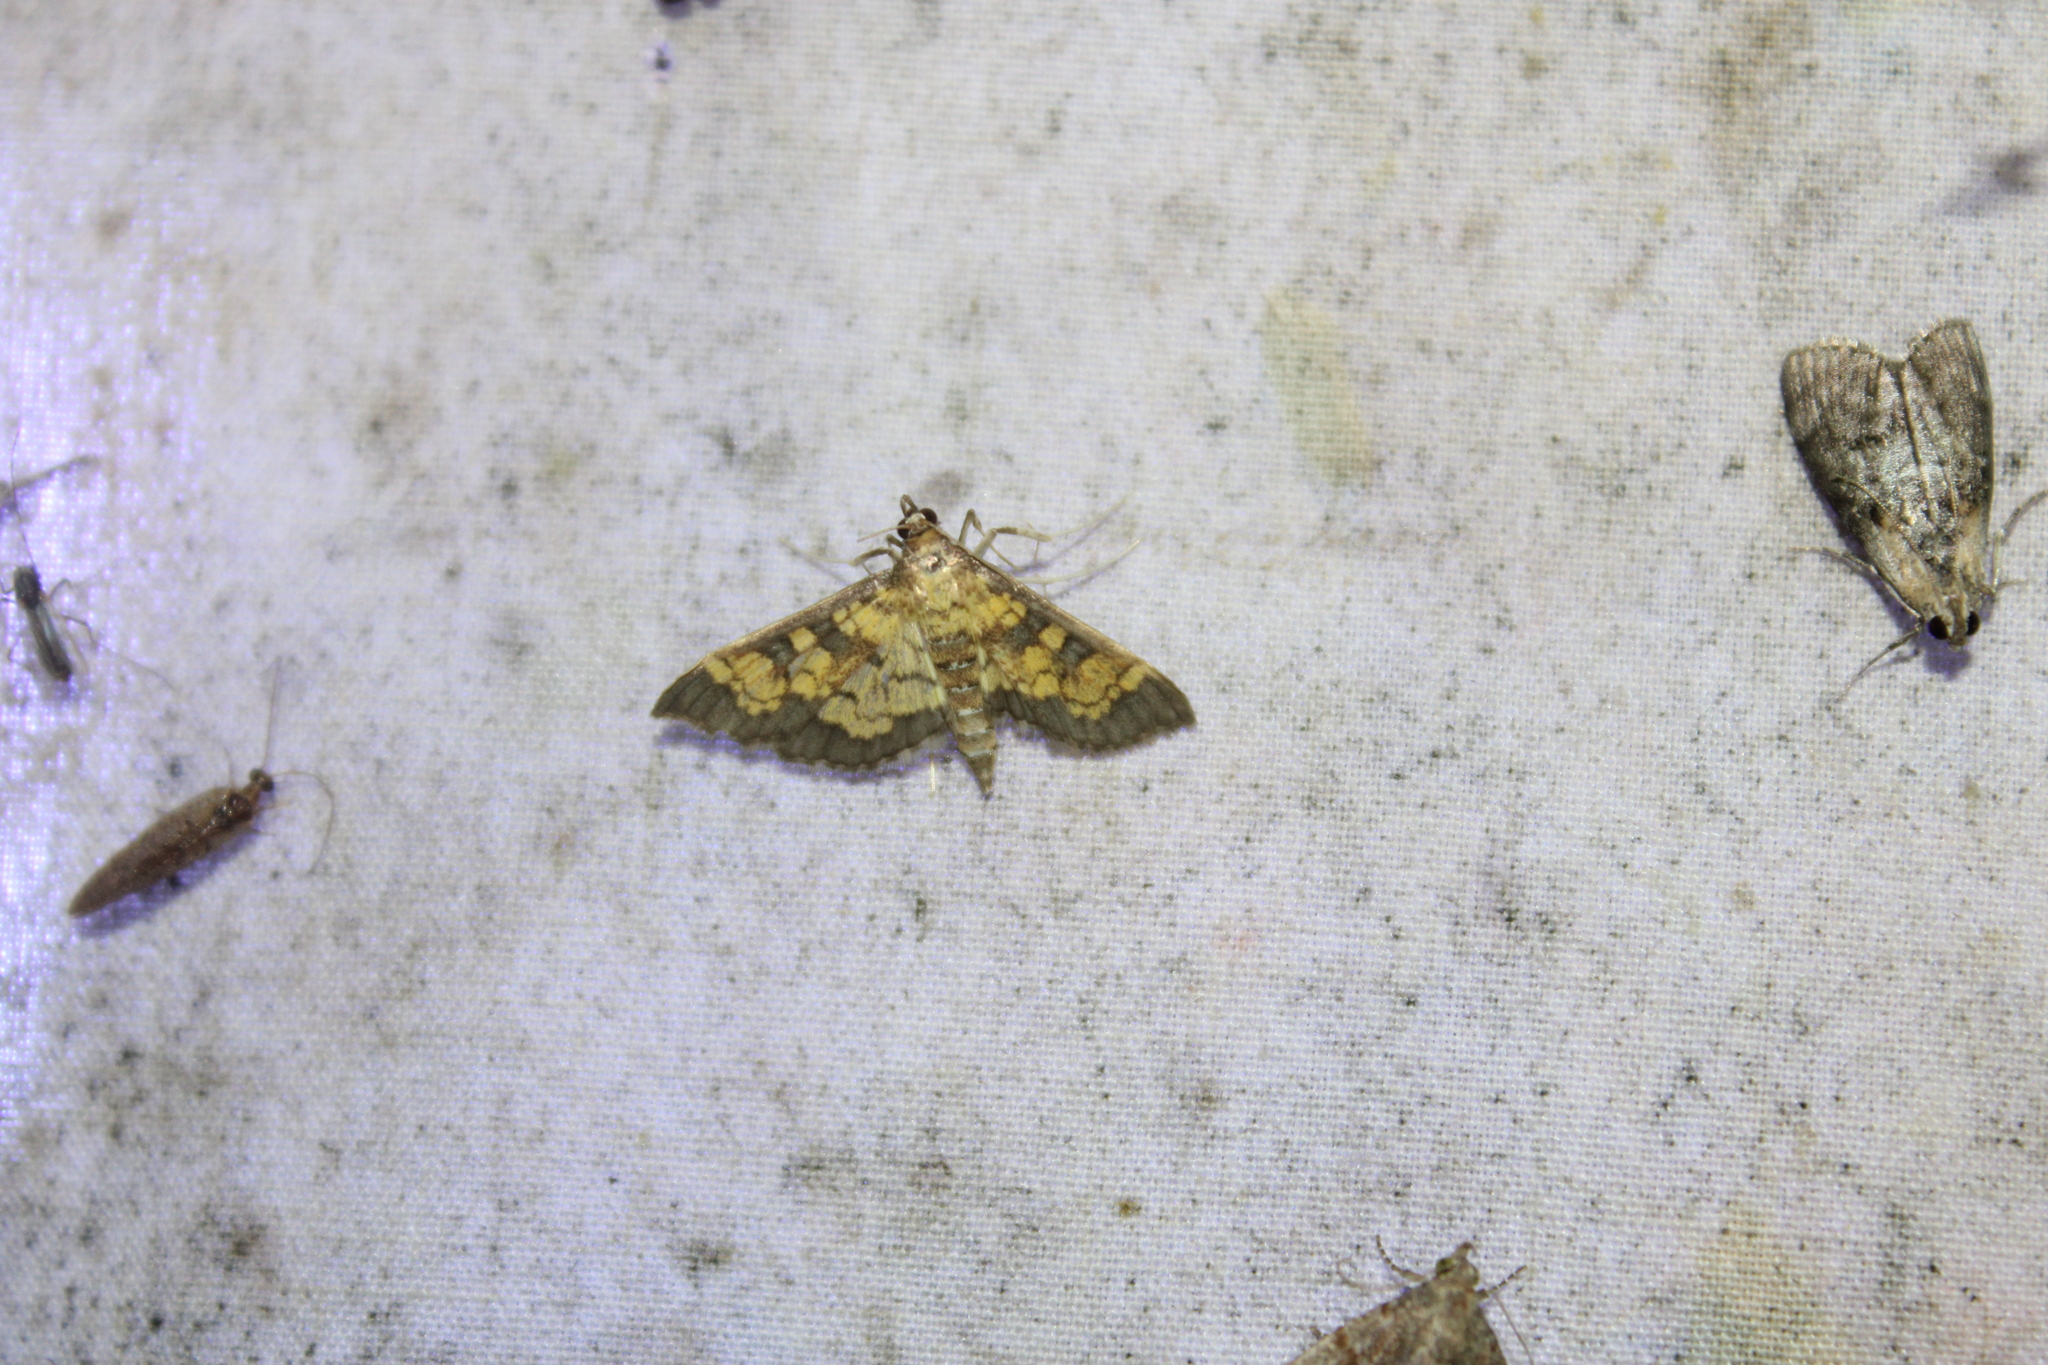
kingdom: Animalia
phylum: Arthropoda
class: Insecta
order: Lepidoptera
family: Crambidae
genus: Epipagis
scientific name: Epipagis adipaloides
